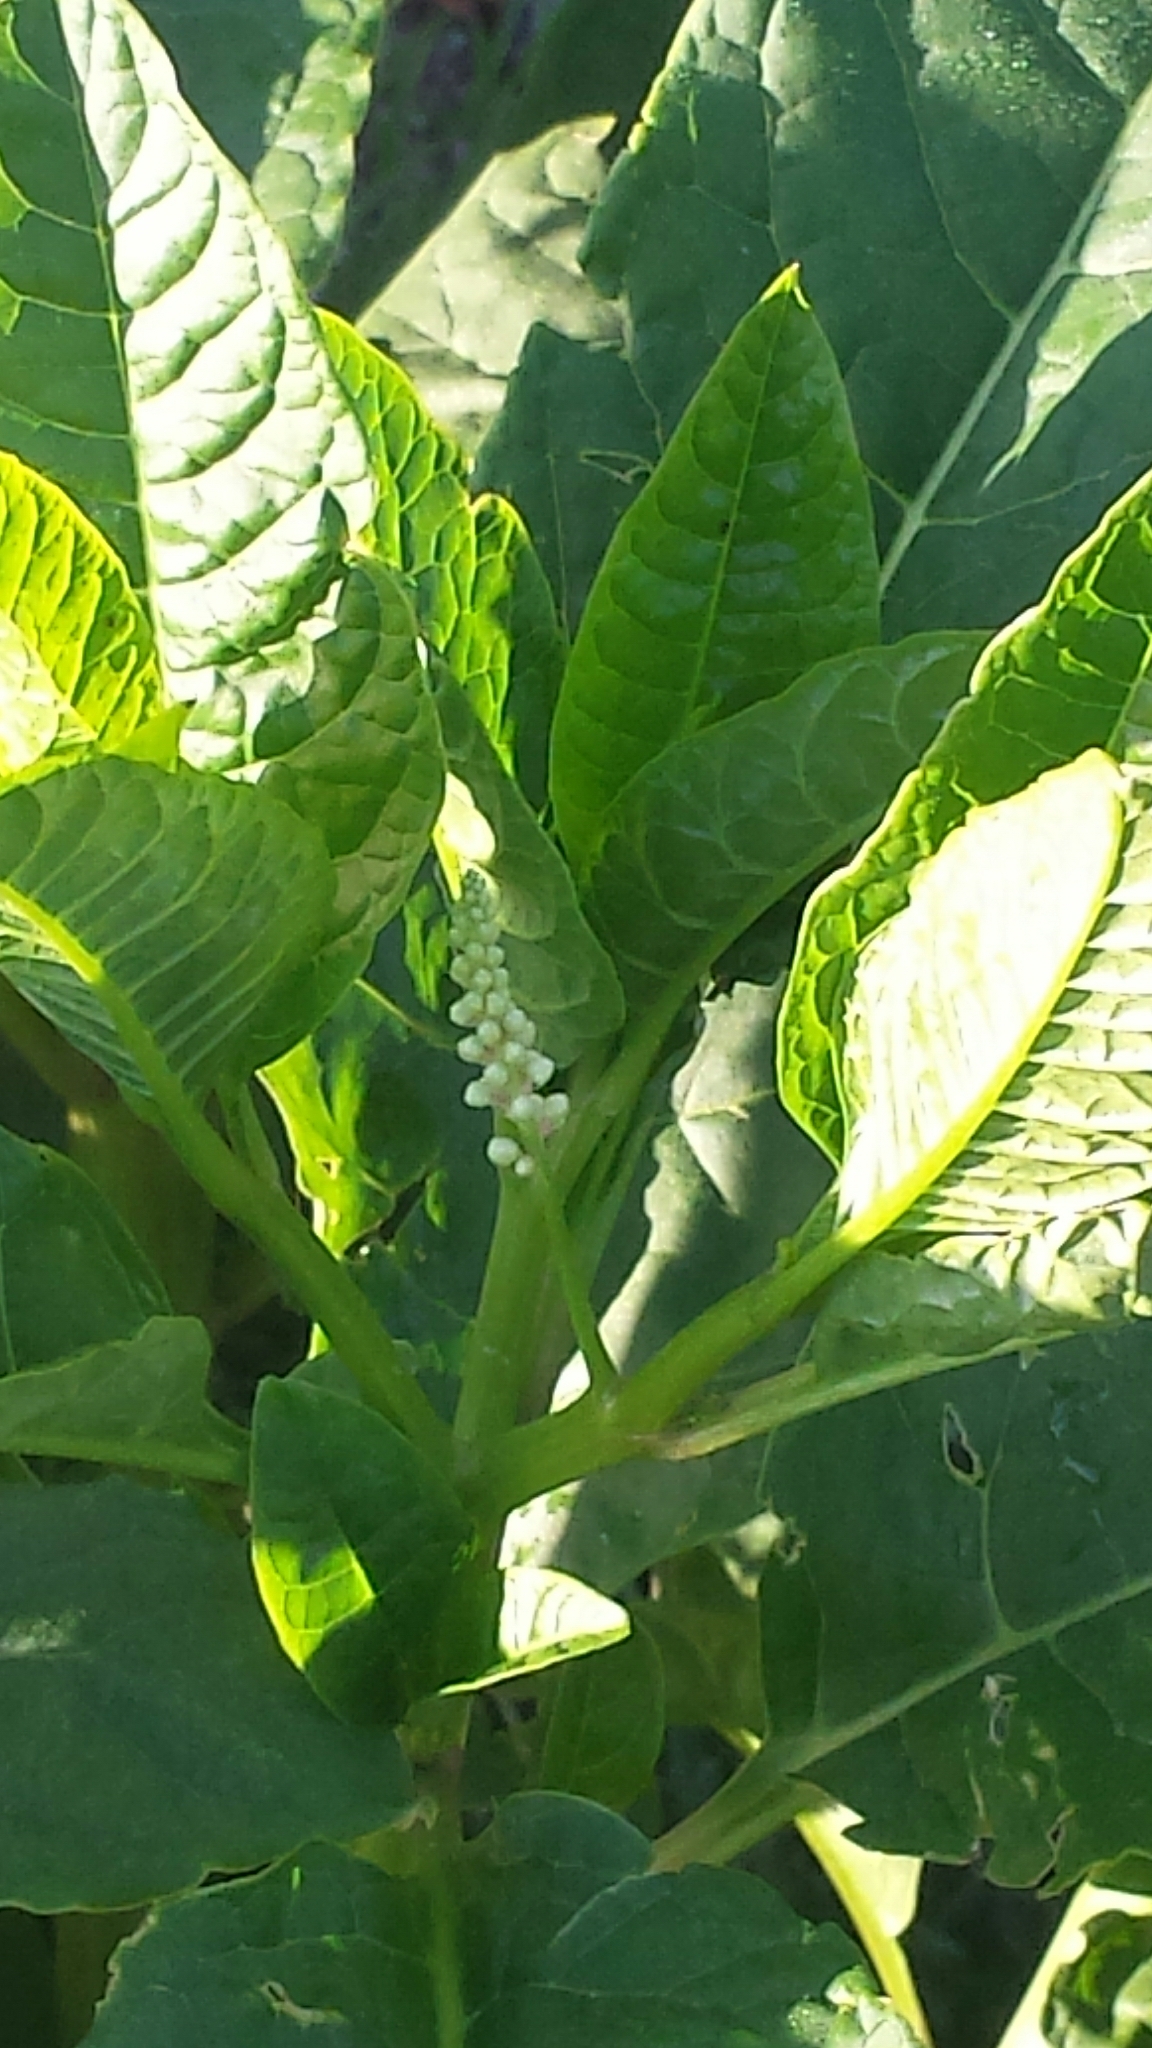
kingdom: Plantae
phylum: Tracheophyta
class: Magnoliopsida
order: Caryophyllales
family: Phytolaccaceae
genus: Phytolacca
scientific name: Phytolacca americana
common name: American pokeweed
